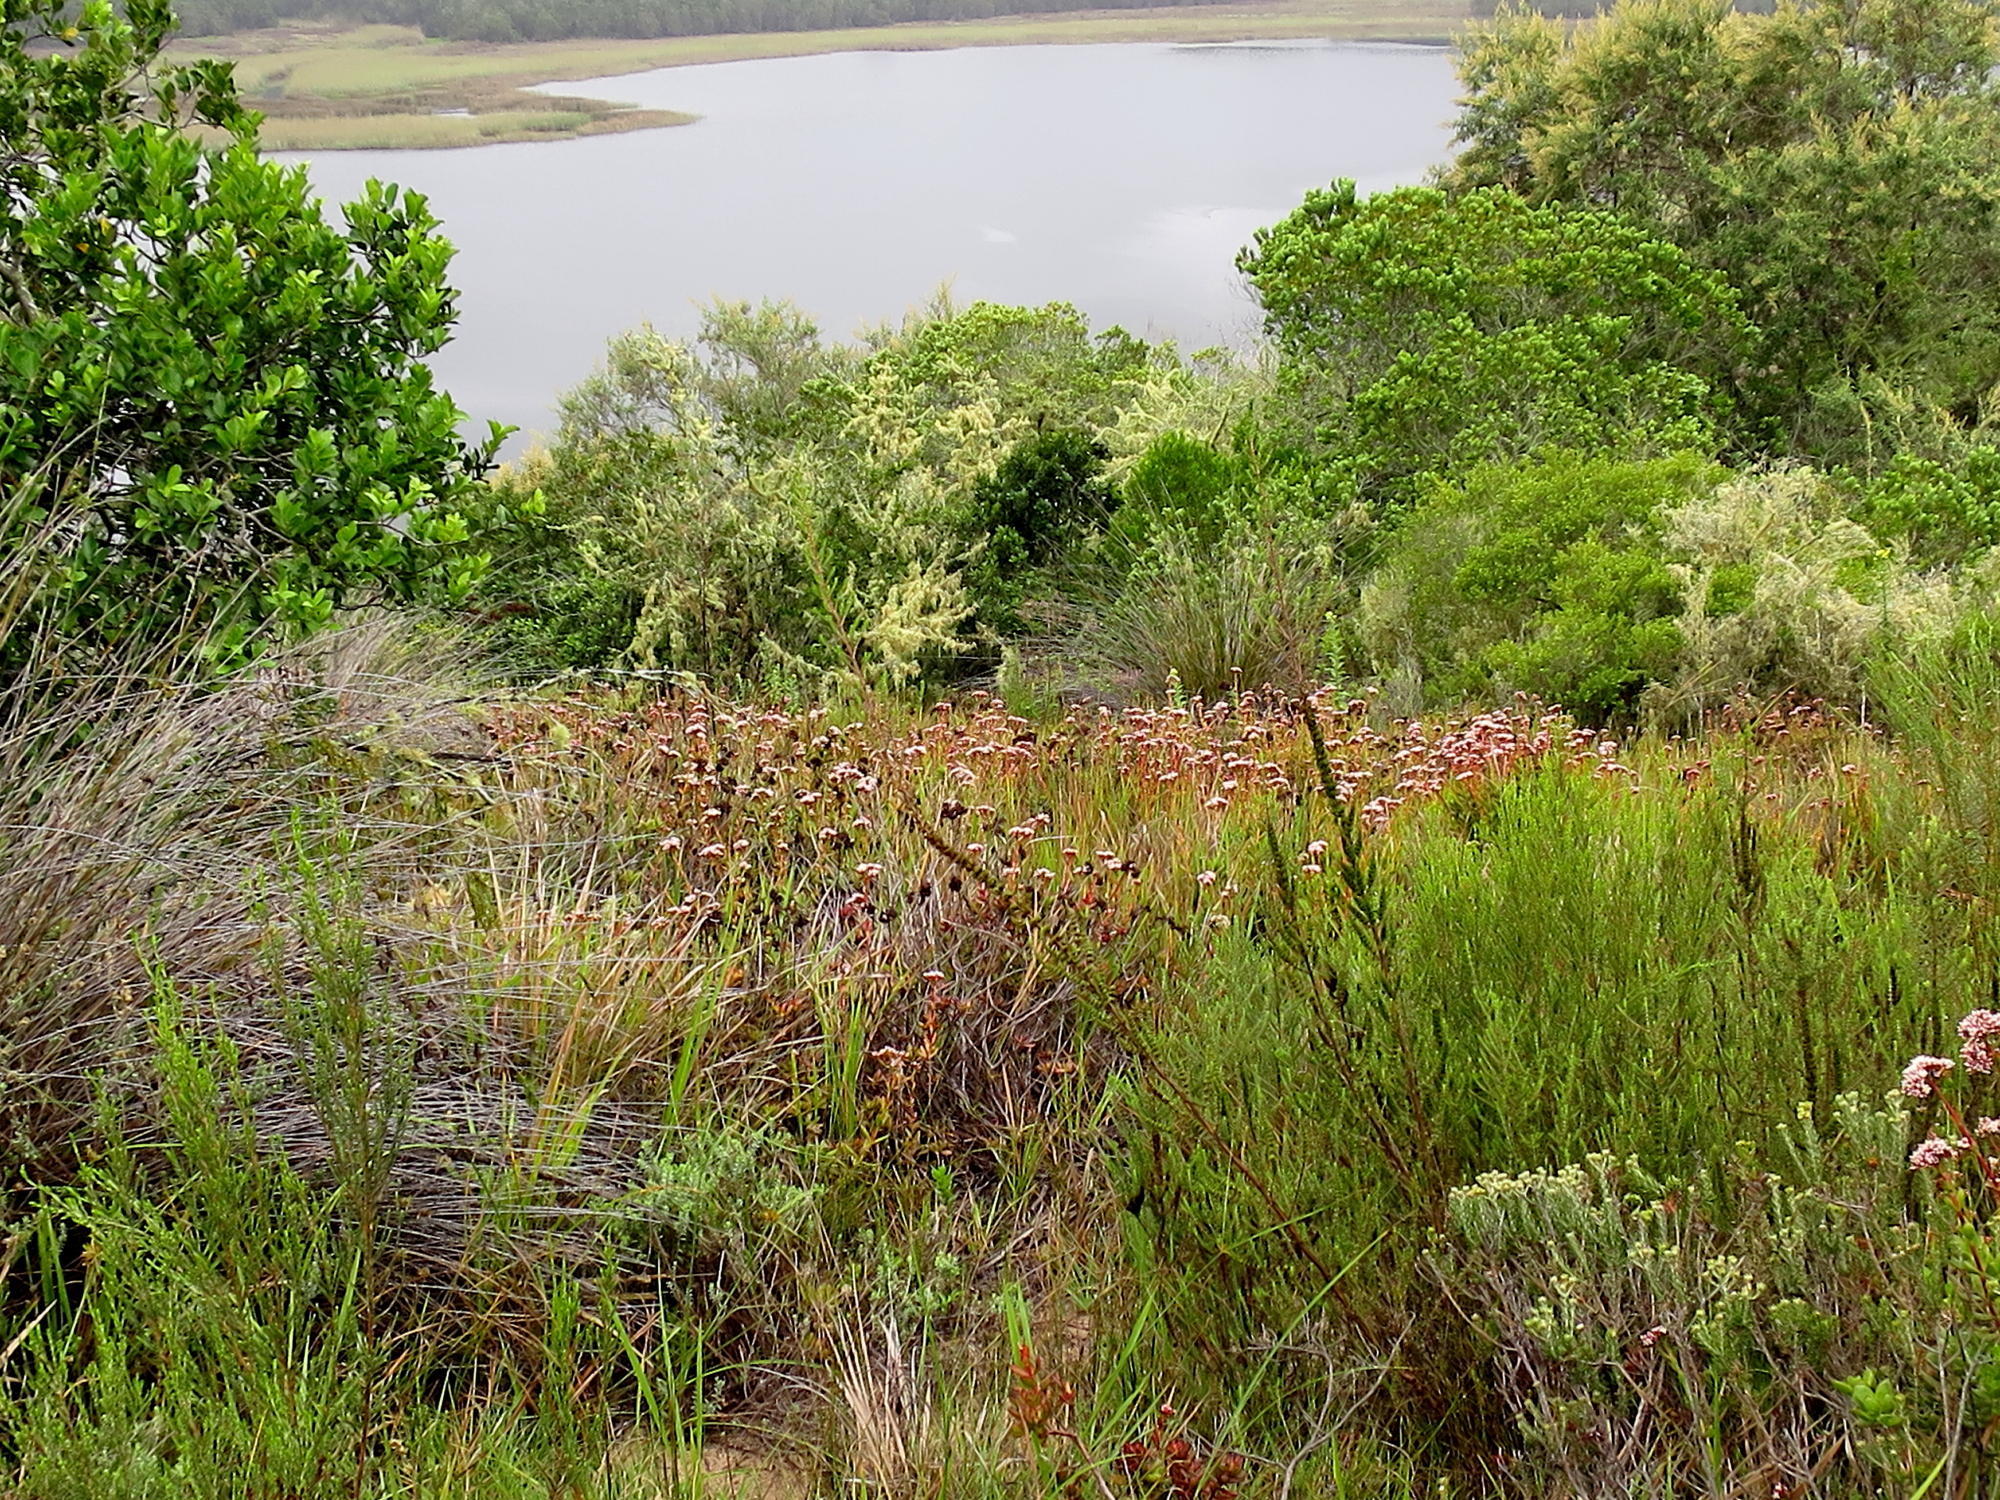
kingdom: Plantae
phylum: Tracheophyta
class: Magnoliopsida
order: Saxifragales
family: Crassulaceae
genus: Crassula
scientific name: Crassula rubricaulis
